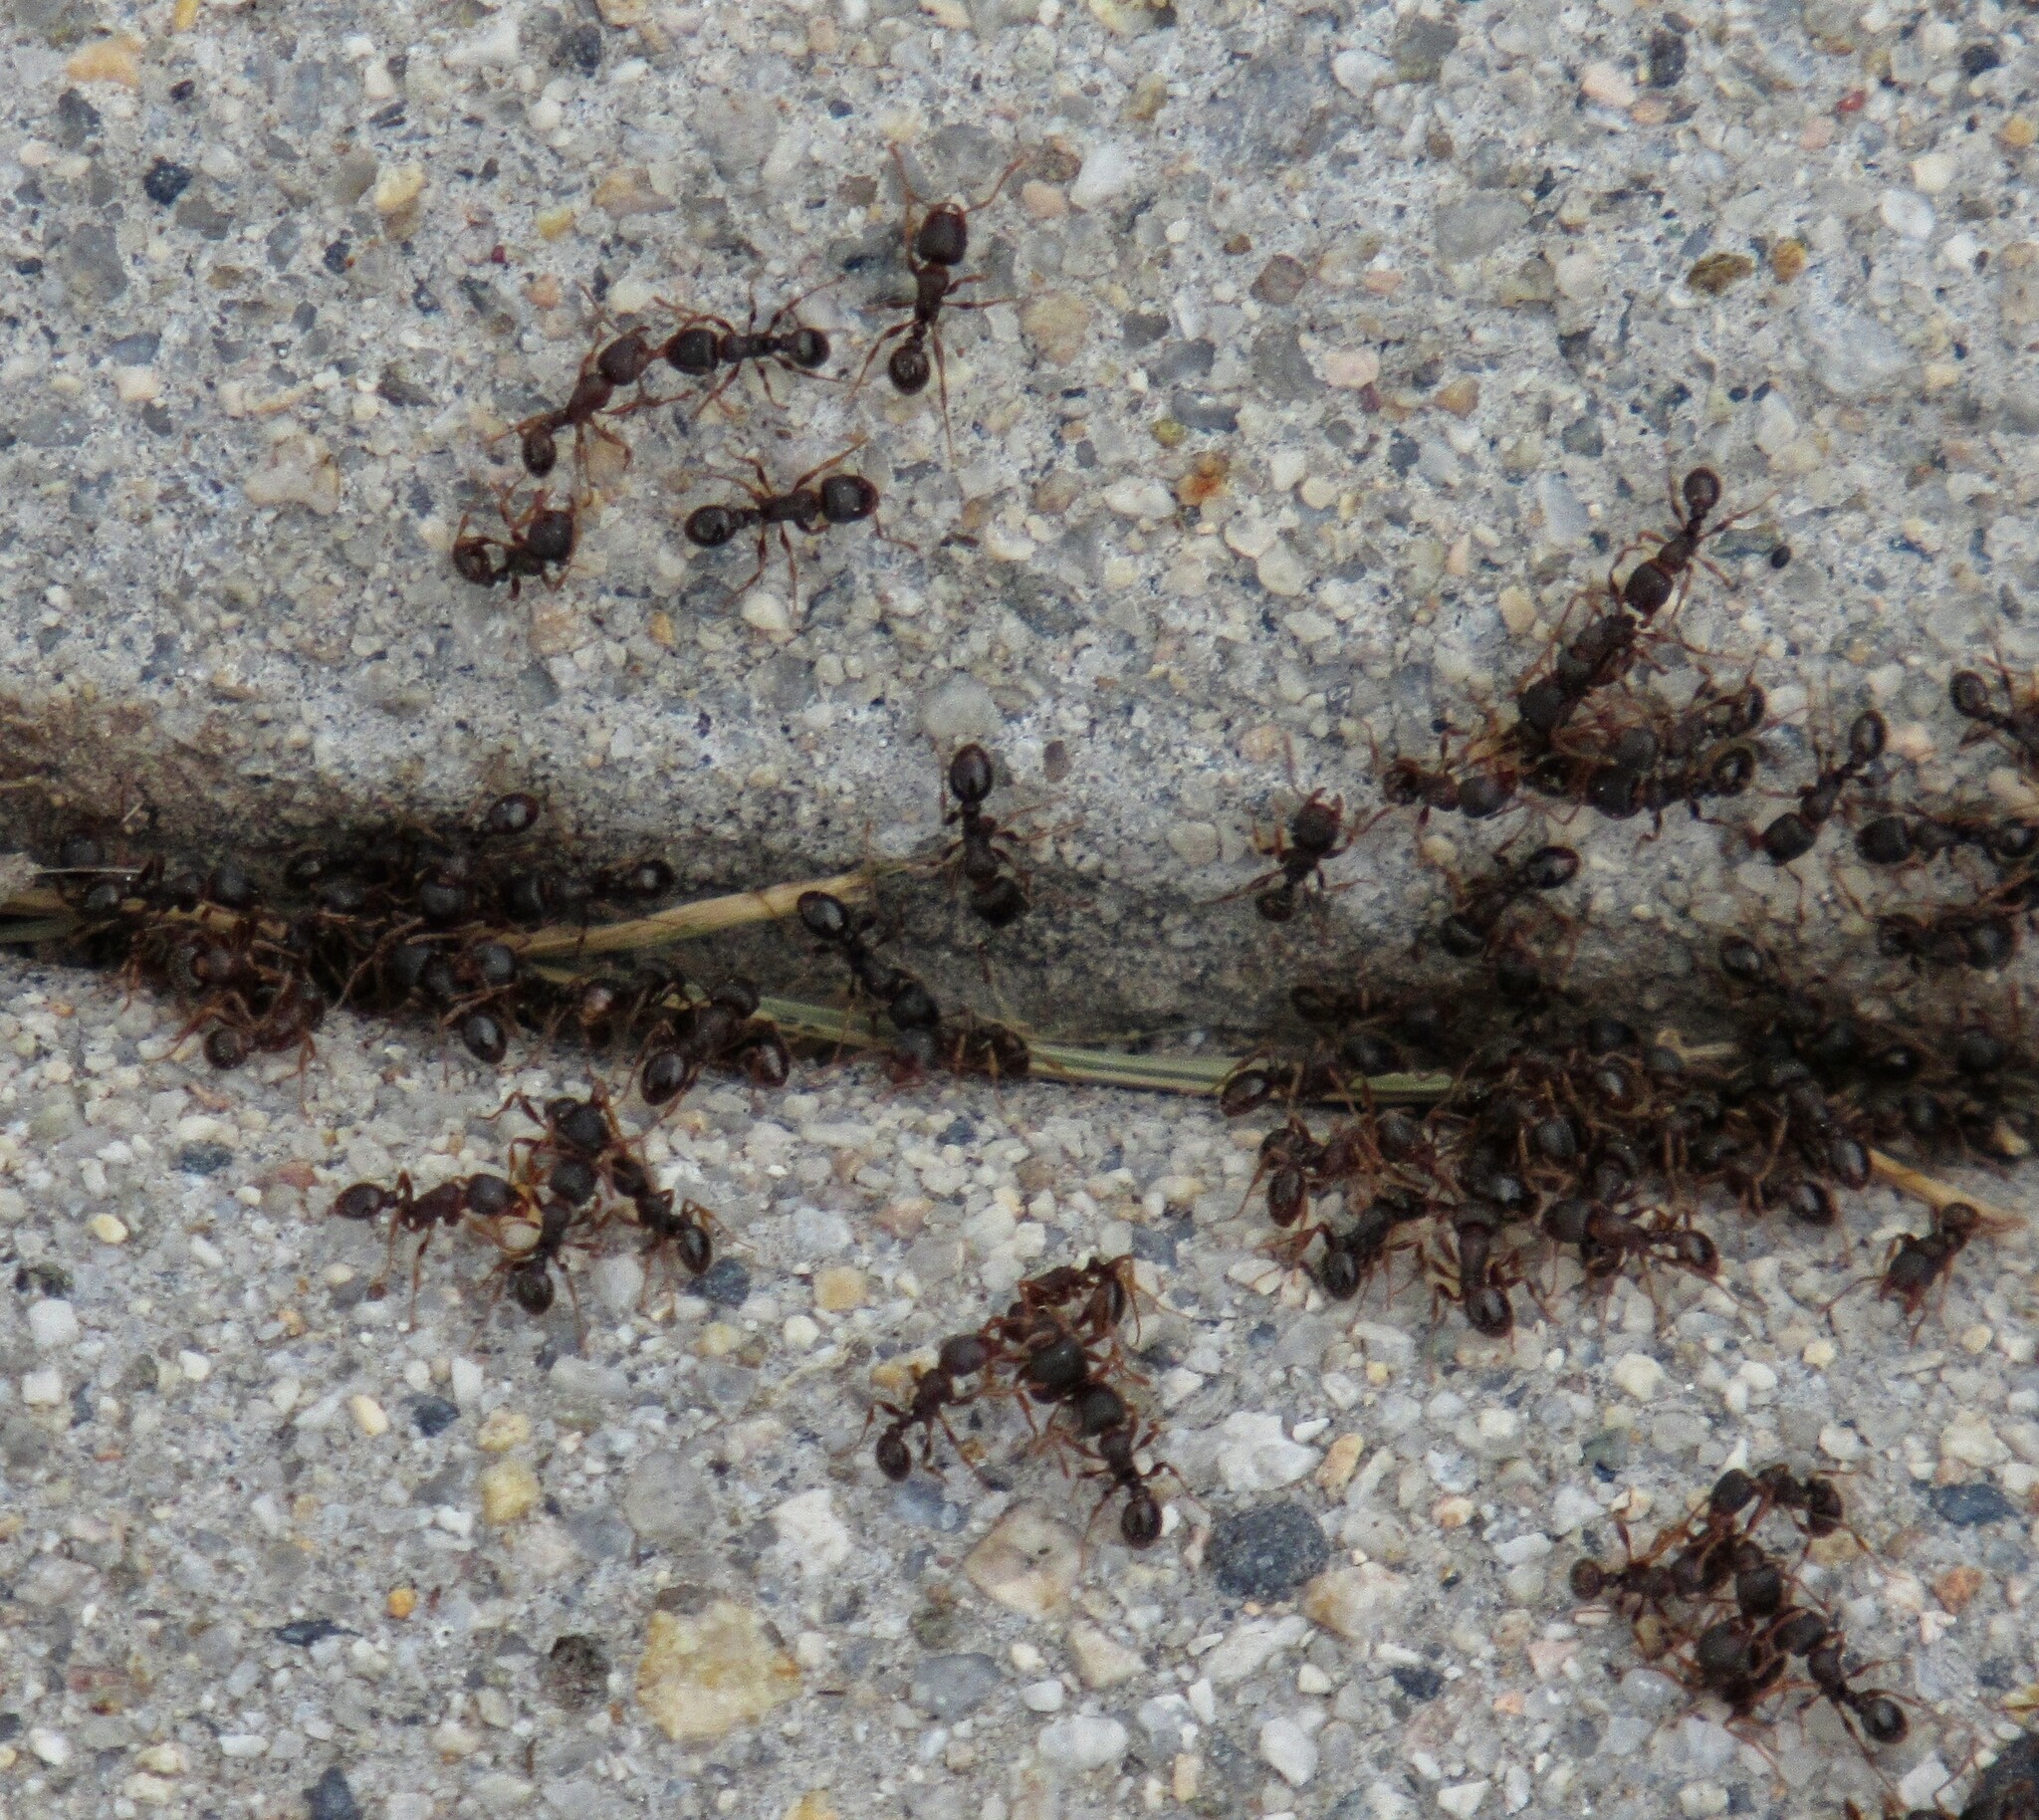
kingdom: Animalia
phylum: Arthropoda
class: Insecta
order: Hymenoptera
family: Formicidae
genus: Tetramorium
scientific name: Tetramorium immigrans
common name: Pavement ant
